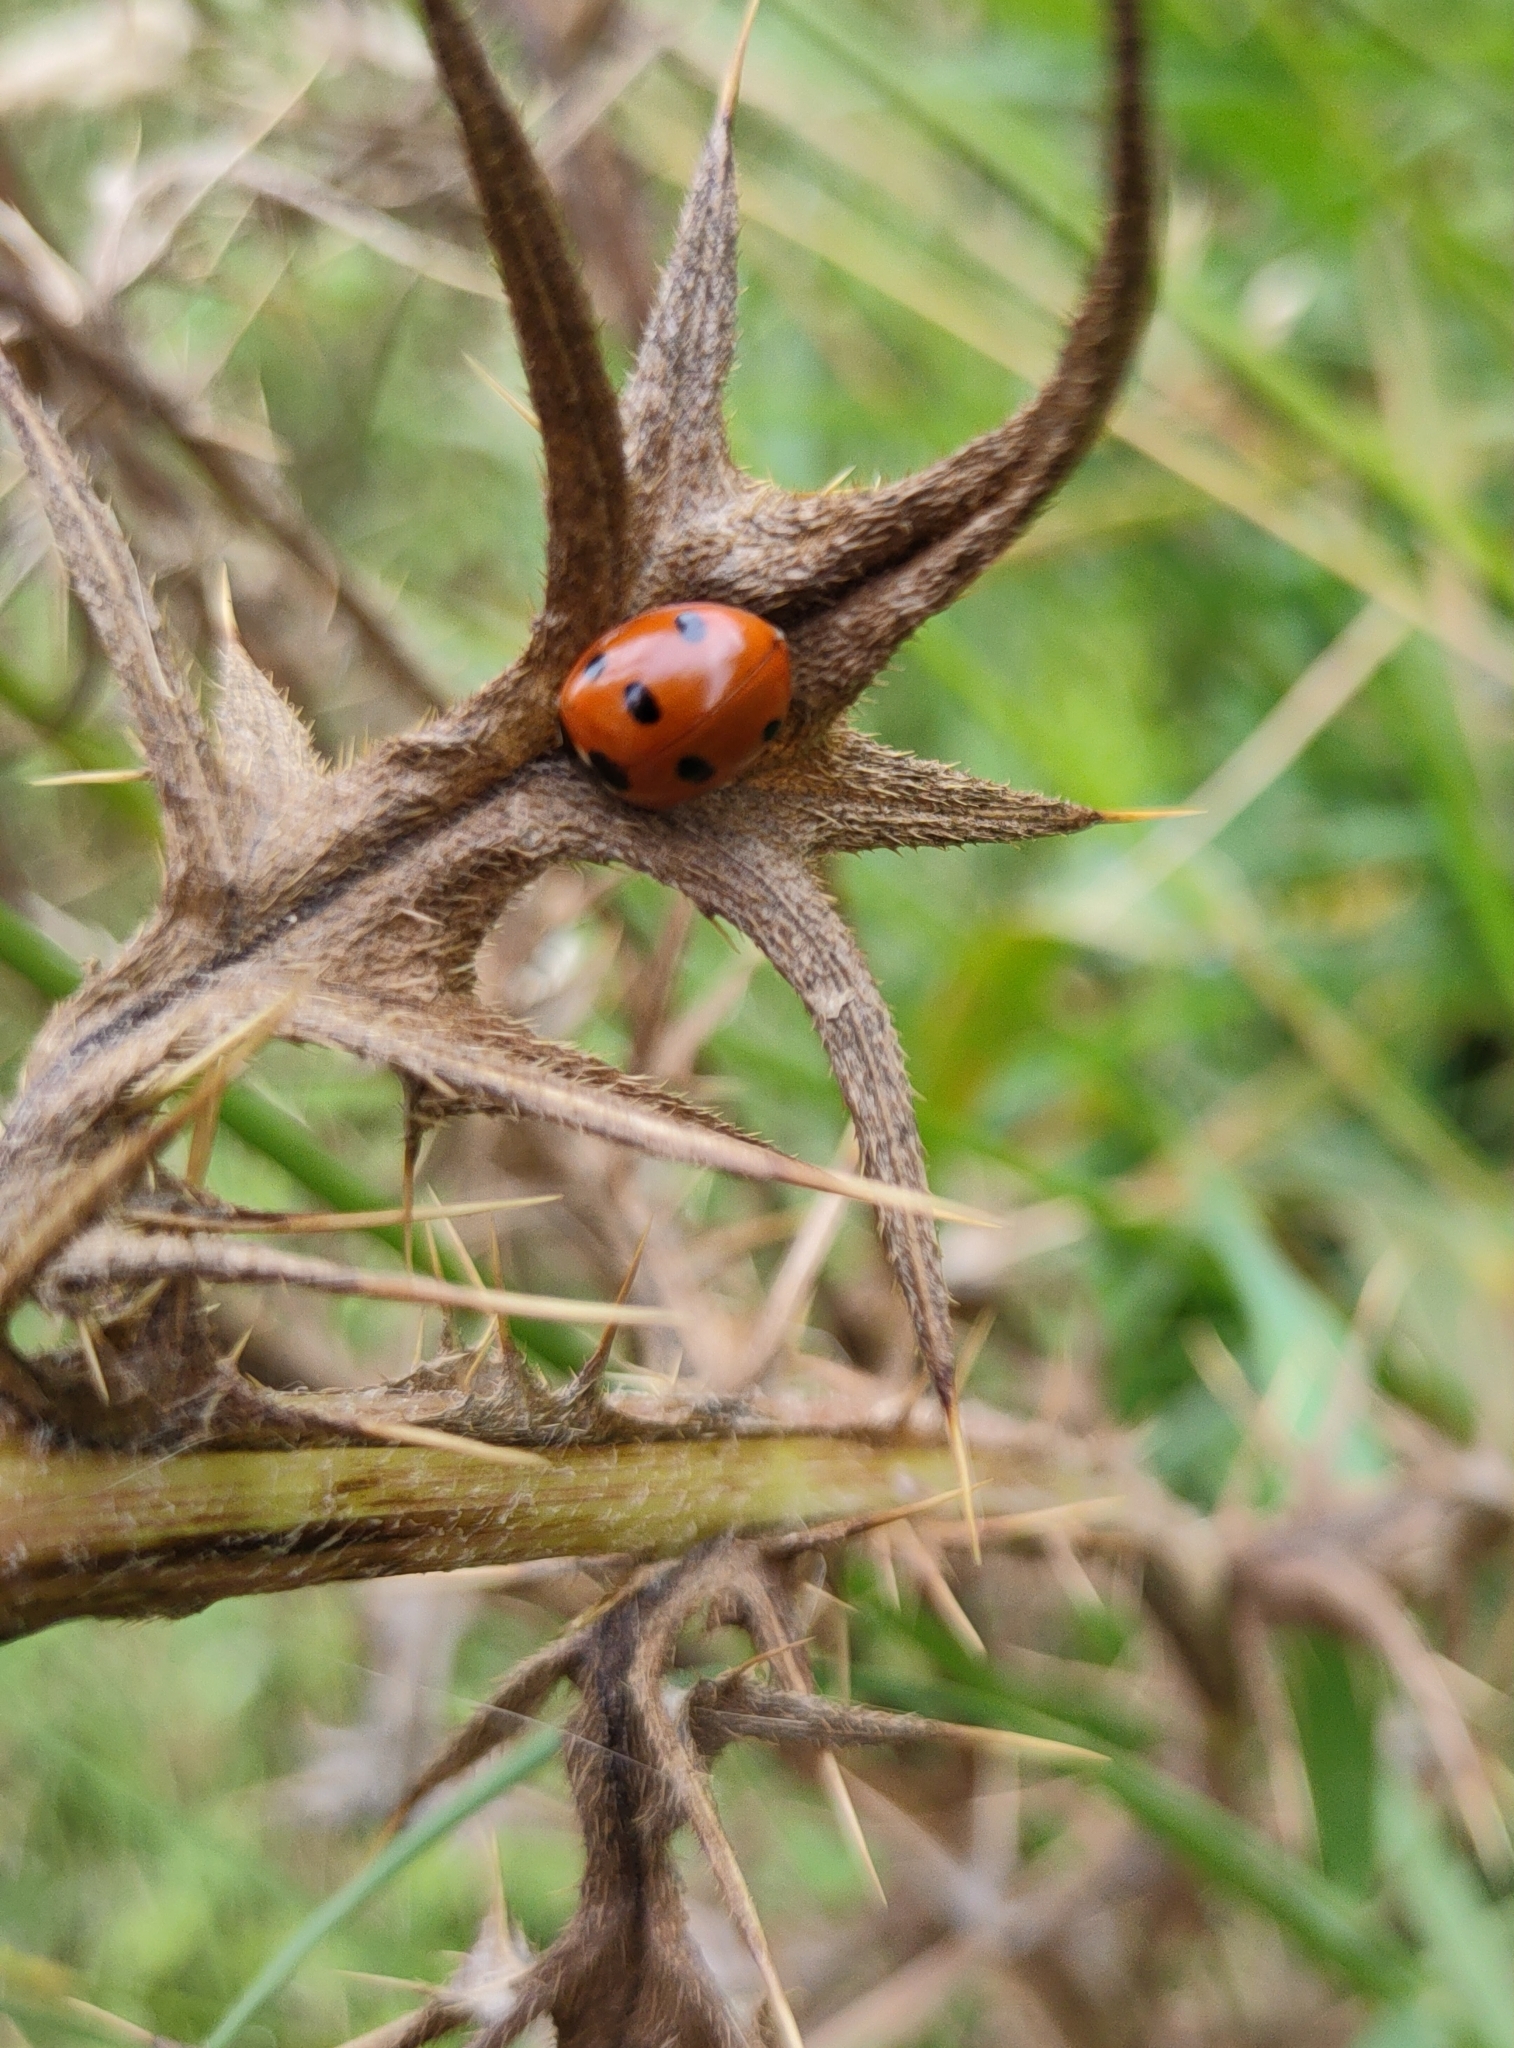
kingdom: Animalia
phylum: Arthropoda
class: Insecta
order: Coleoptera
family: Coccinellidae
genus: Coccinella
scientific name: Coccinella septempunctata
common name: Sevenspotted lady beetle
